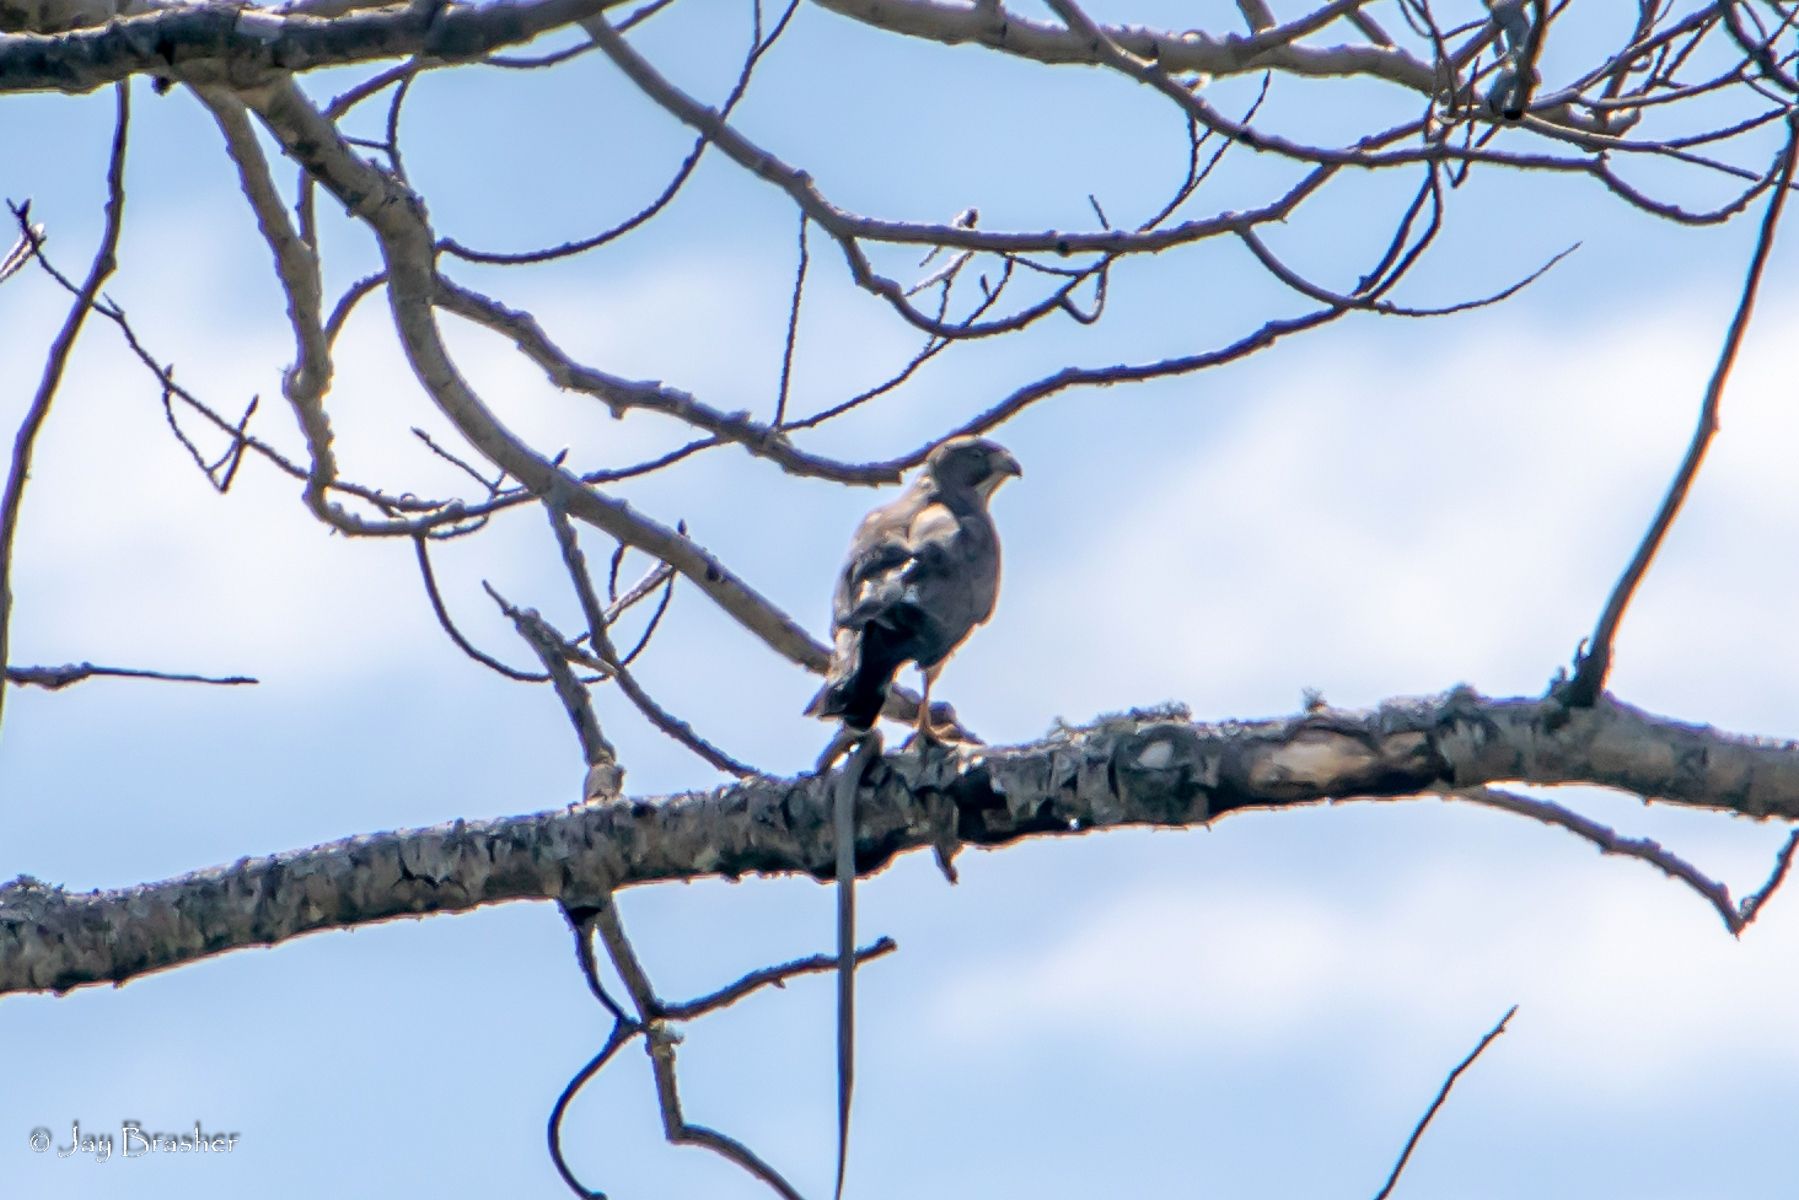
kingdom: Animalia
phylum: Chordata
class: Aves
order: Accipitriformes
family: Accipitridae
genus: Buteo
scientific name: Buteo platypterus
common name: Broad-winged hawk
